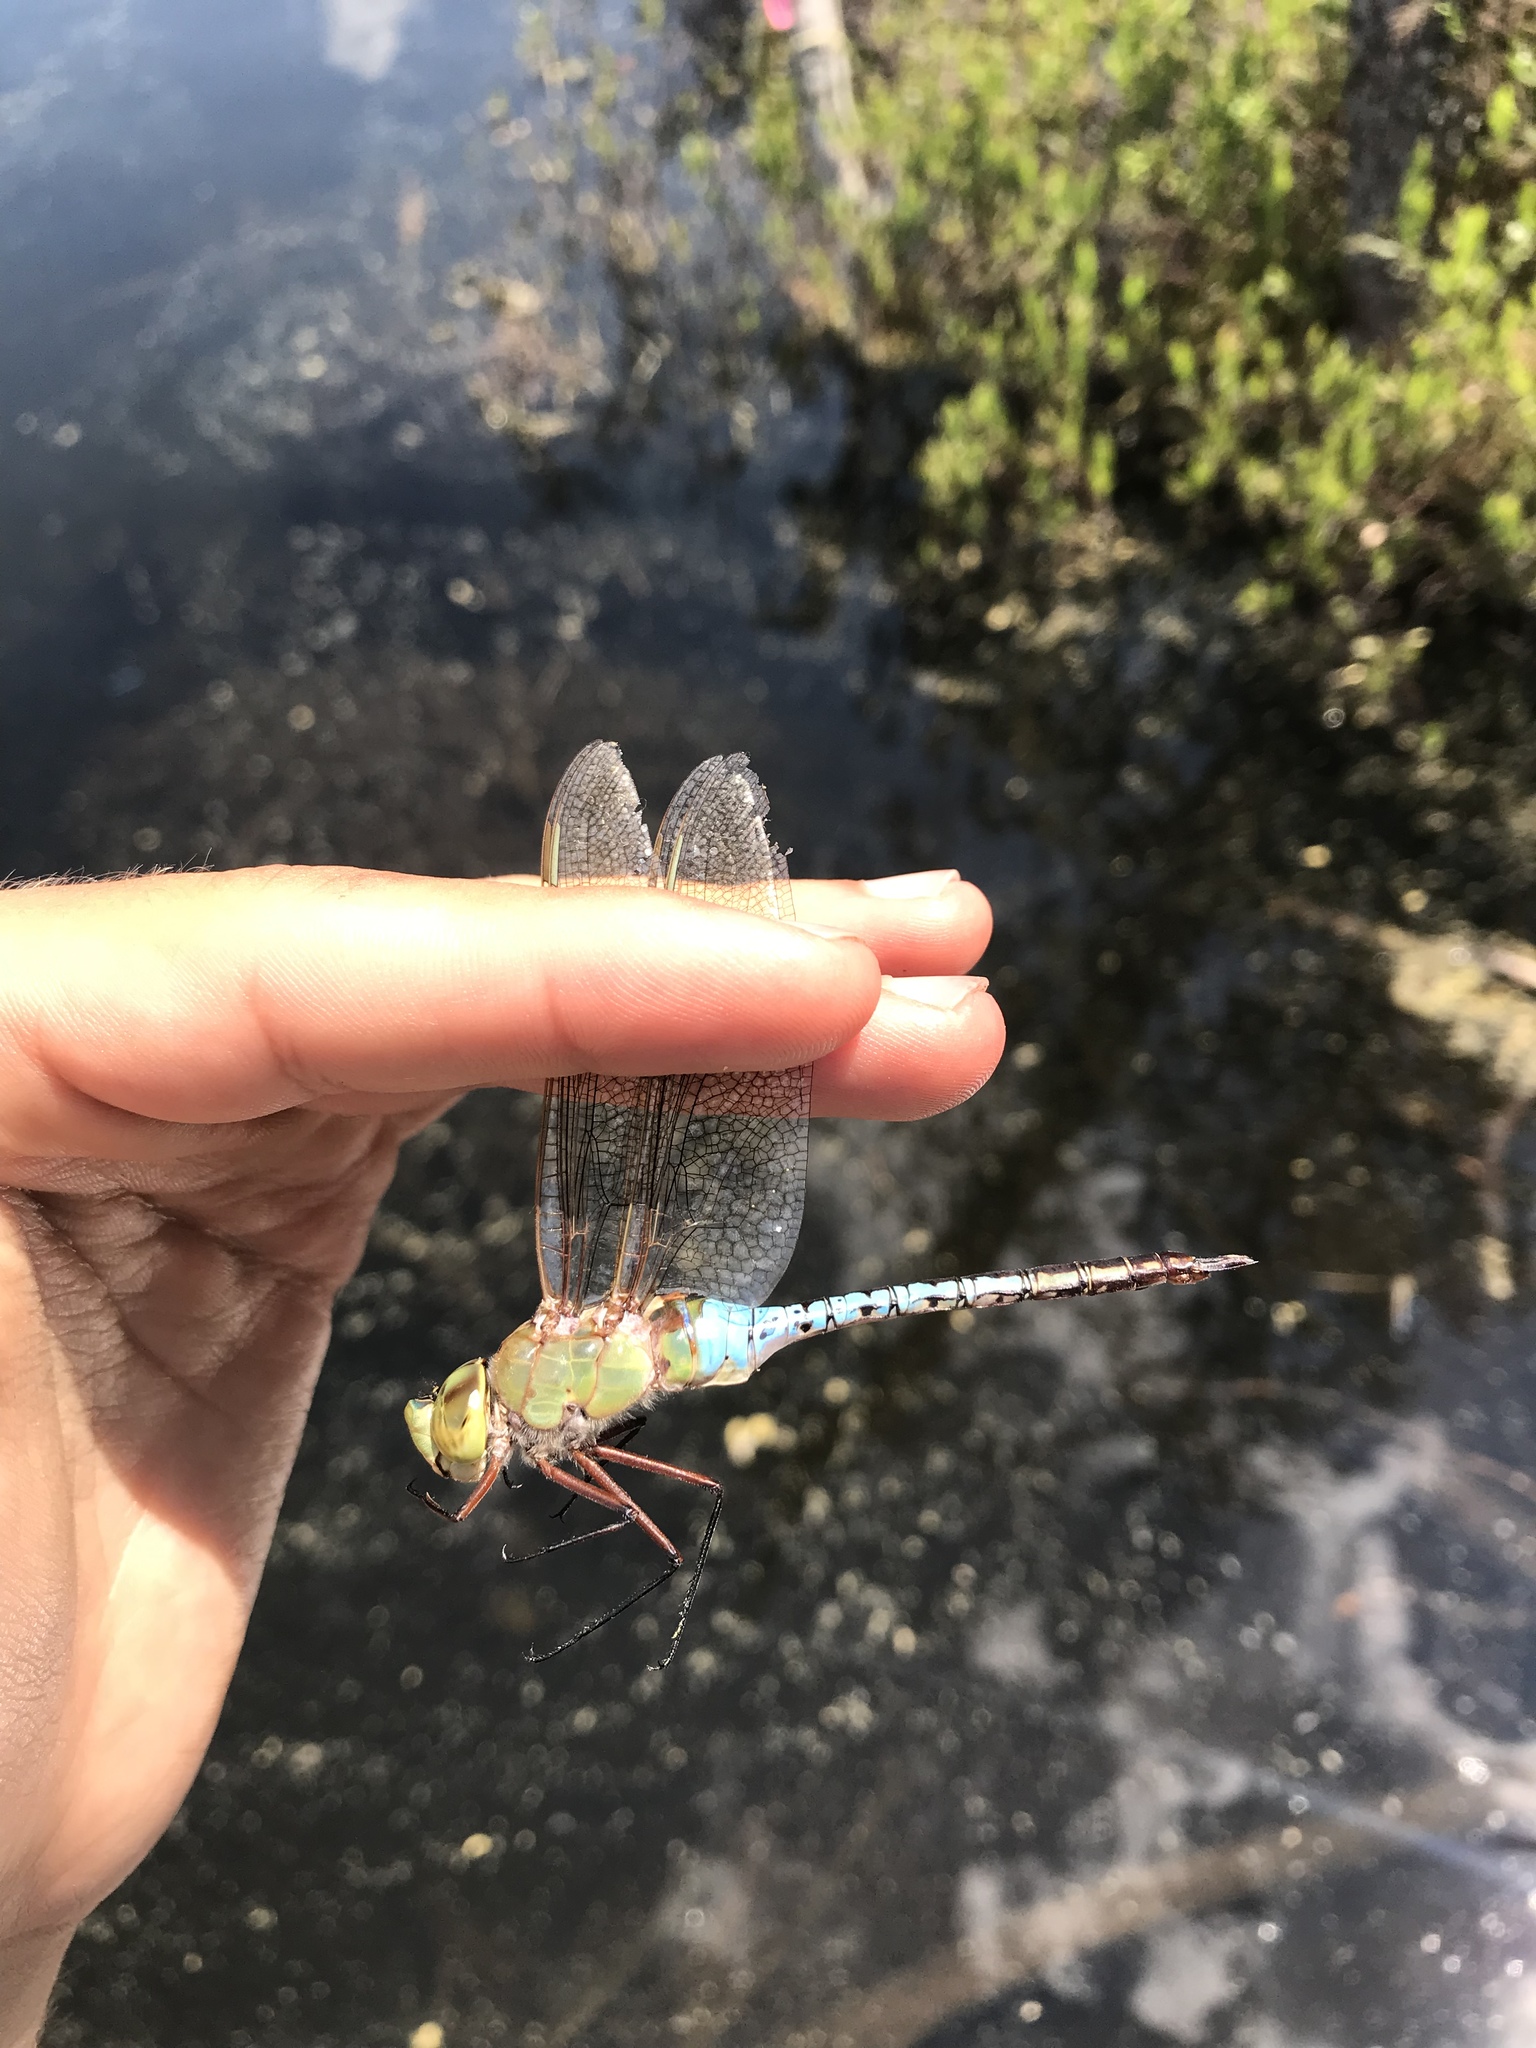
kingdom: Animalia
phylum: Arthropoda
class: Insecta
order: Odonata
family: Aeshnidae
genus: Anax
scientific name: Anax junius
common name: Common green darner
